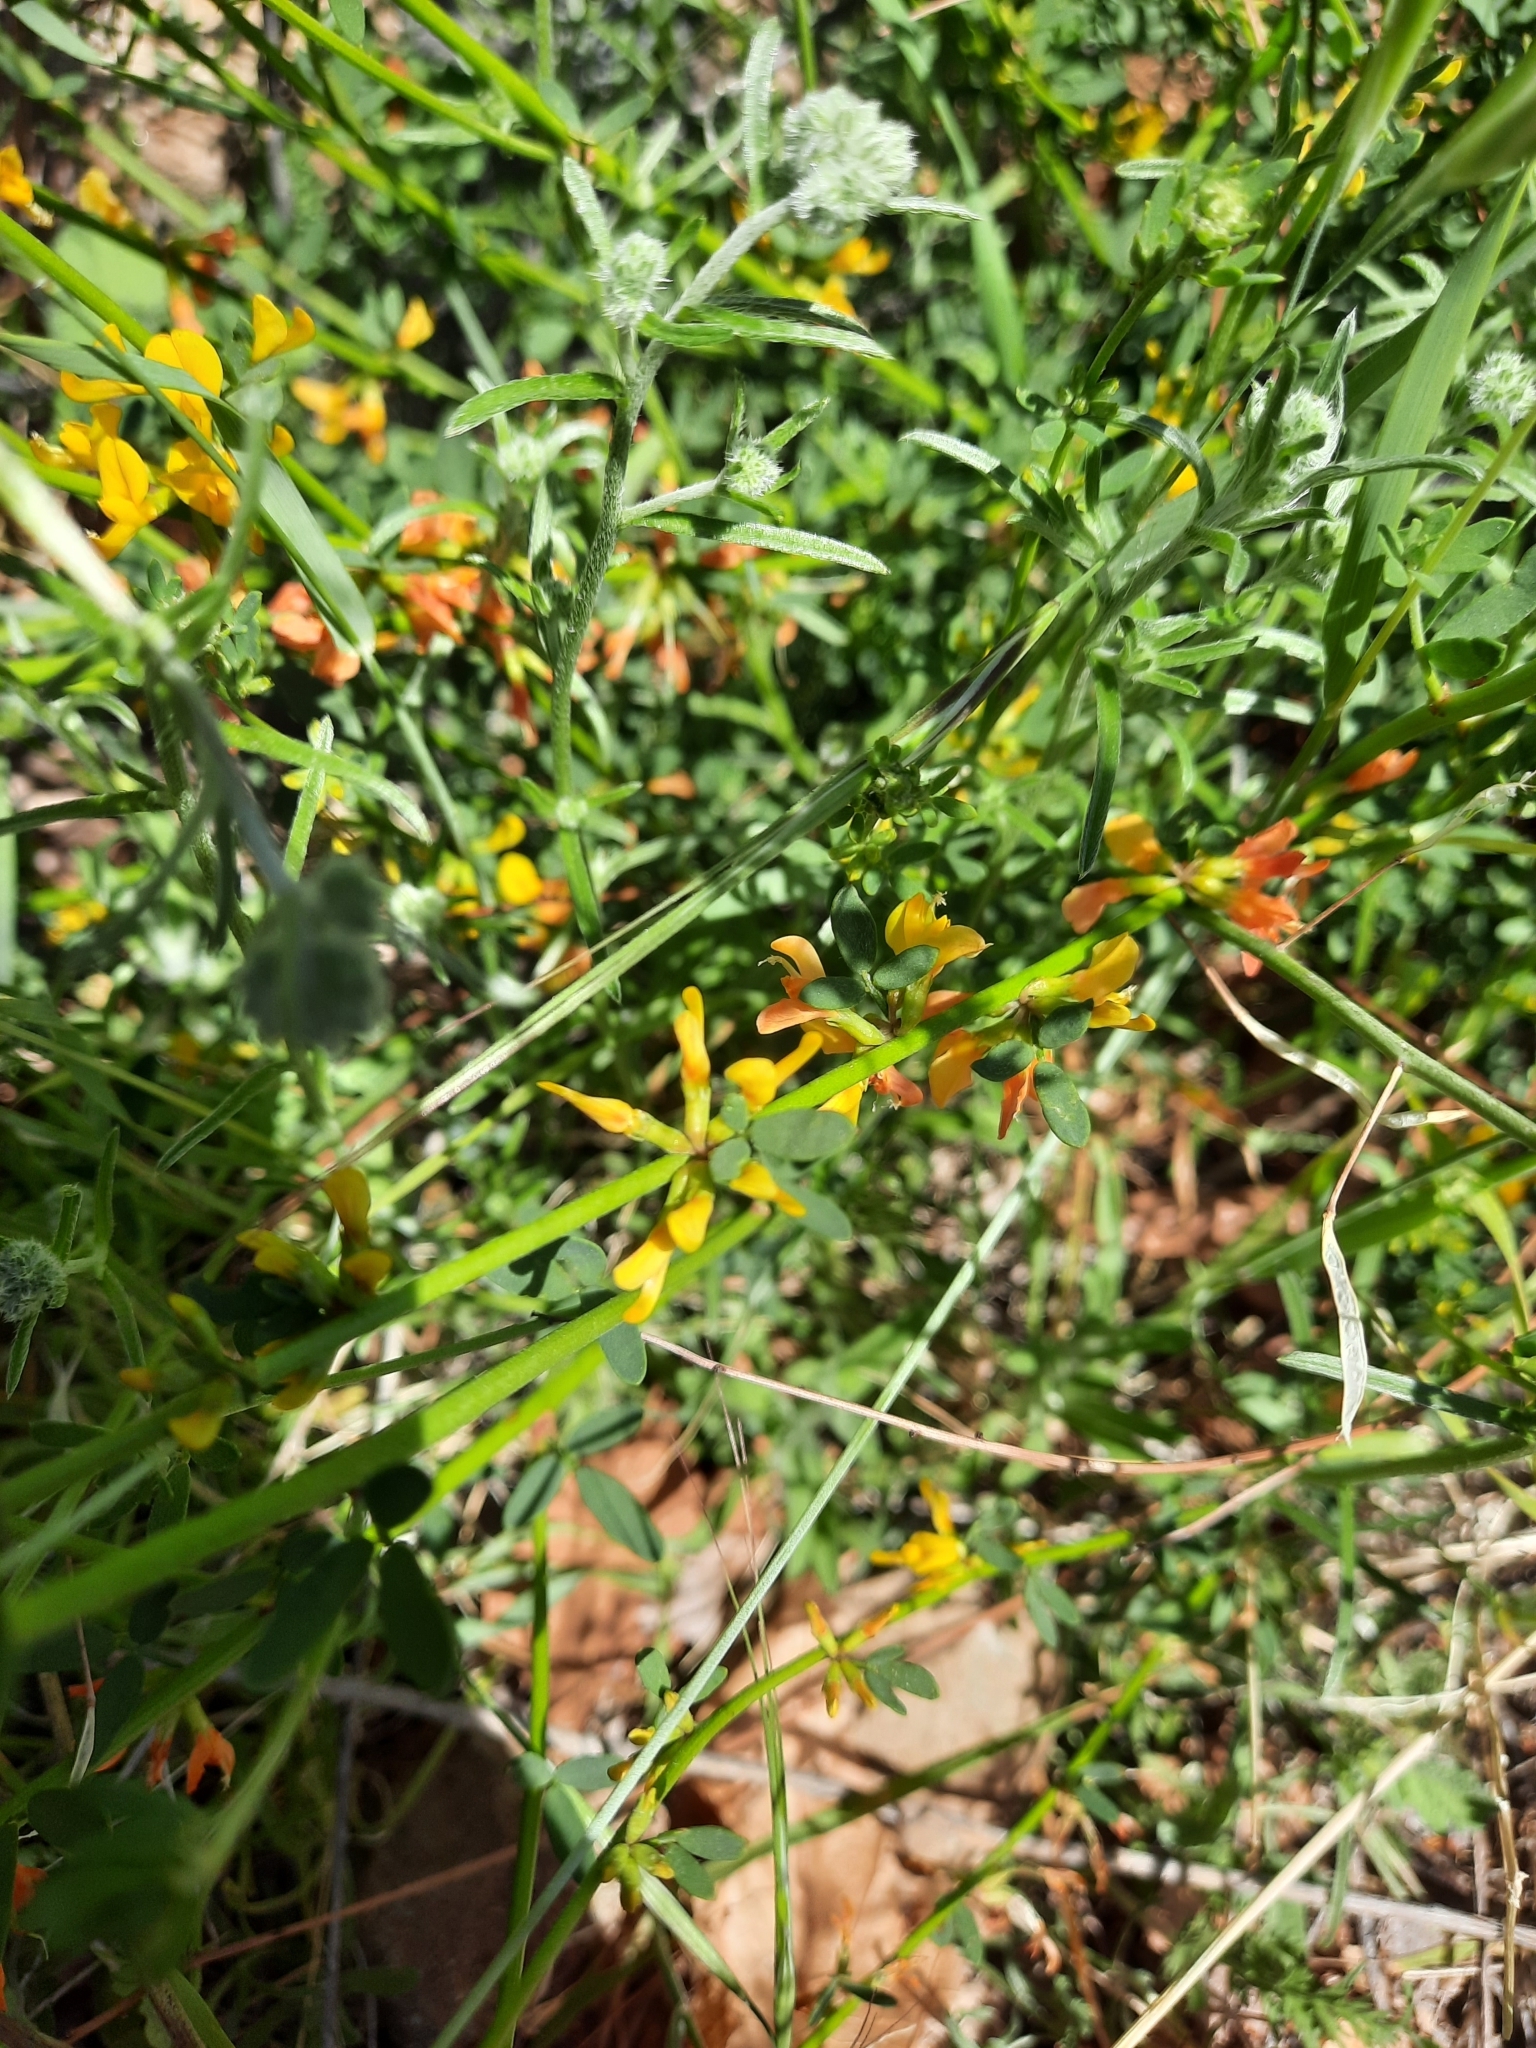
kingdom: Plantae
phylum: Tracheophyta
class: Magnoliopsida
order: Fabales
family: Fabaceae
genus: Acmispon
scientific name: Acmispon glaber
